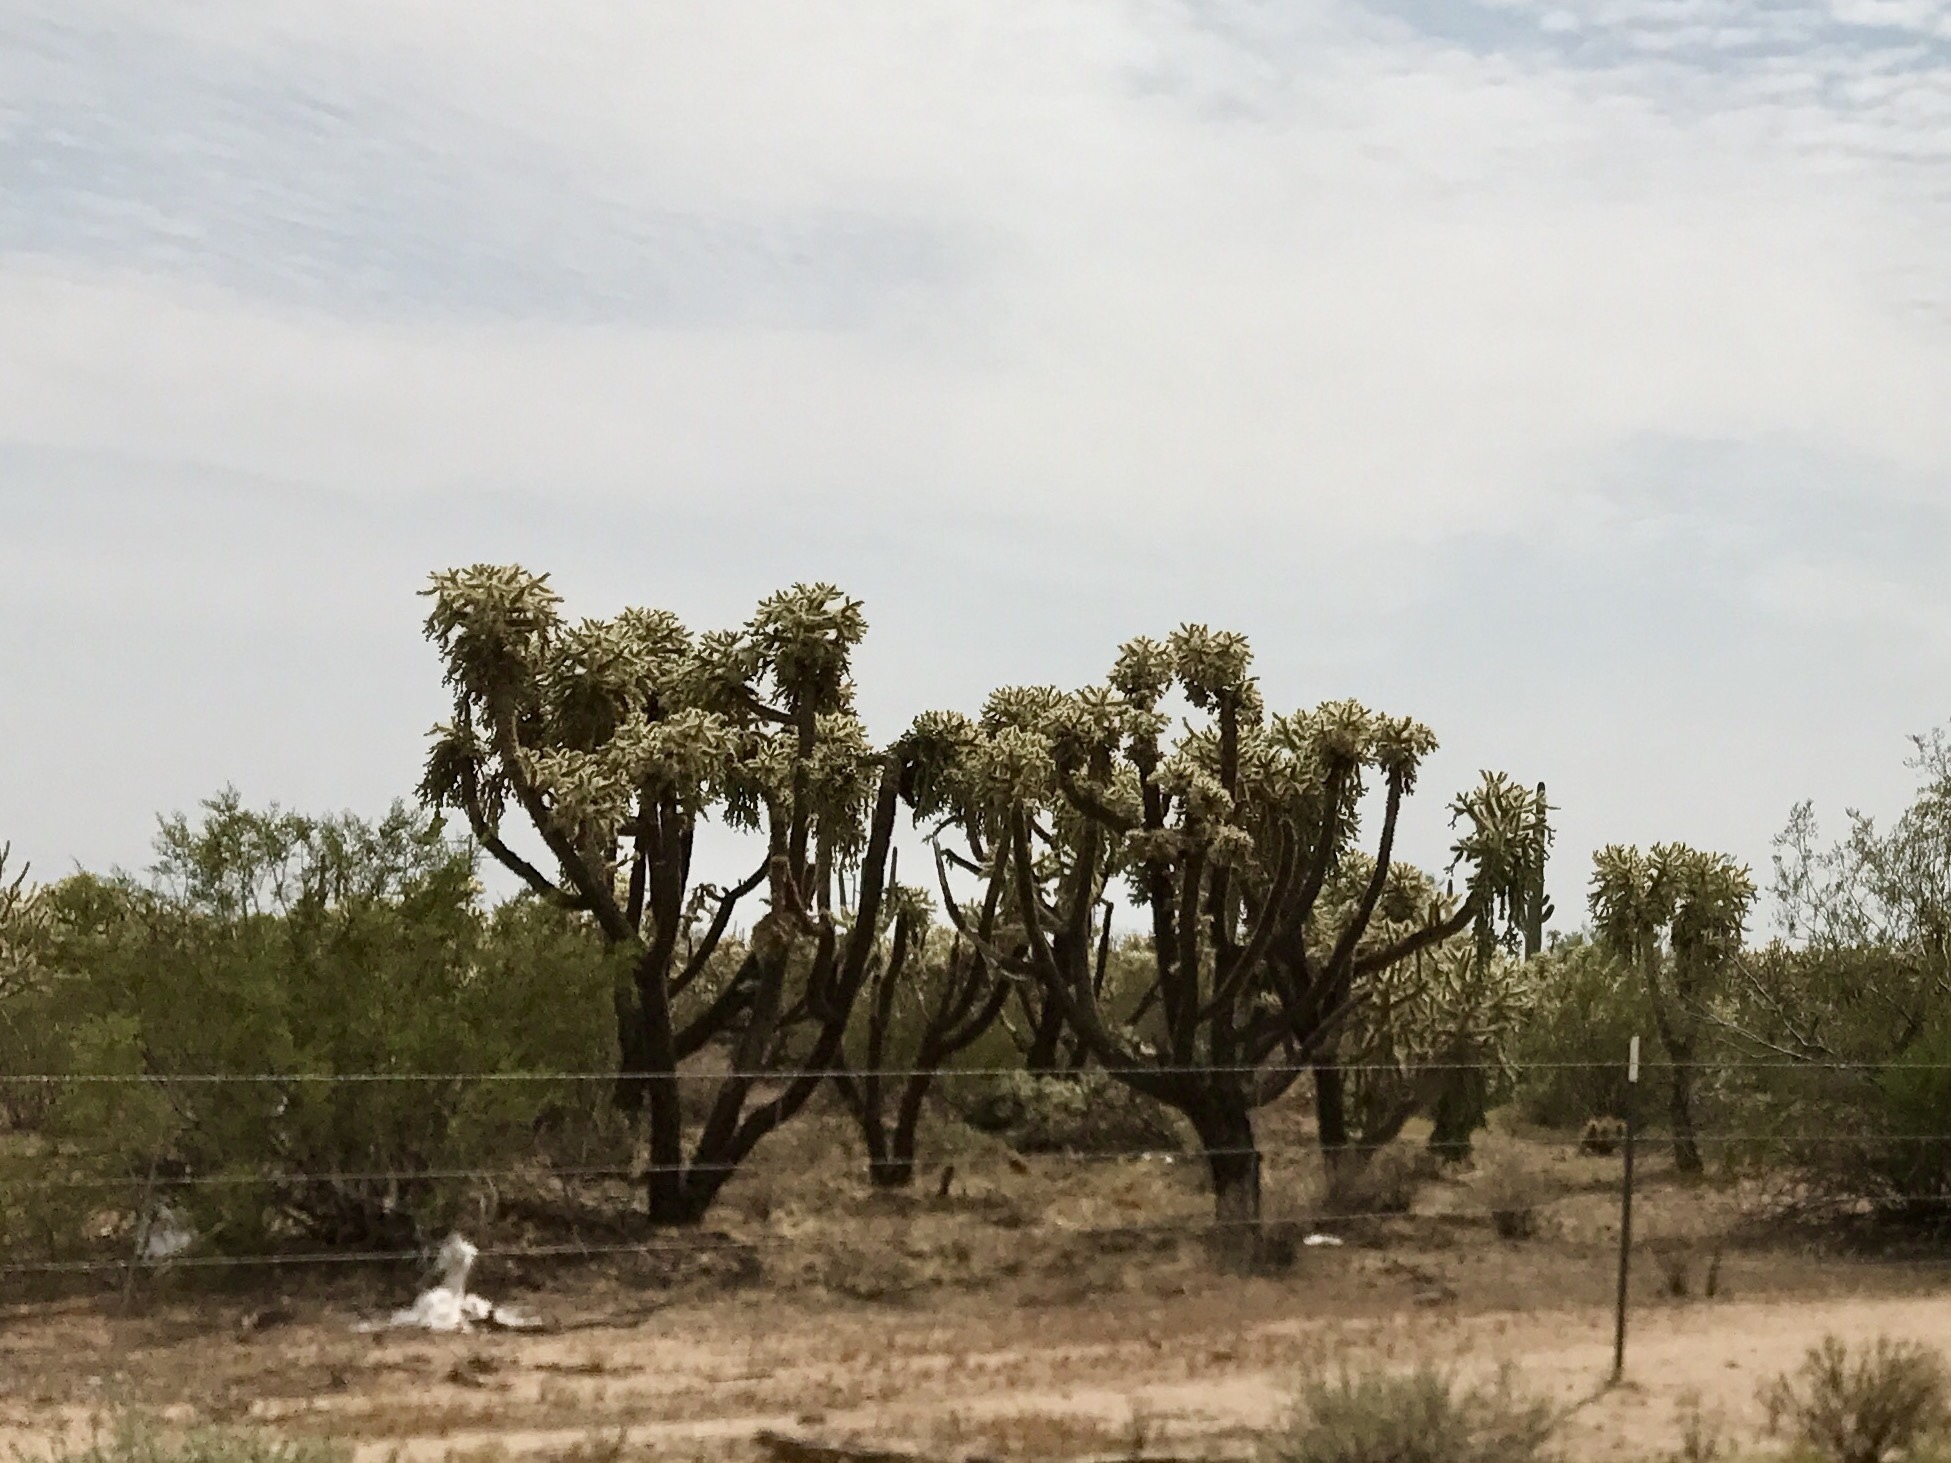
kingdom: Plantae
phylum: Tracheophyta
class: Magnoliopsida
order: Caryophyllales
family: Cactaceae
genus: Cylindropuntia
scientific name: Cylindropuntia fulgida
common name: Jumping cholla
